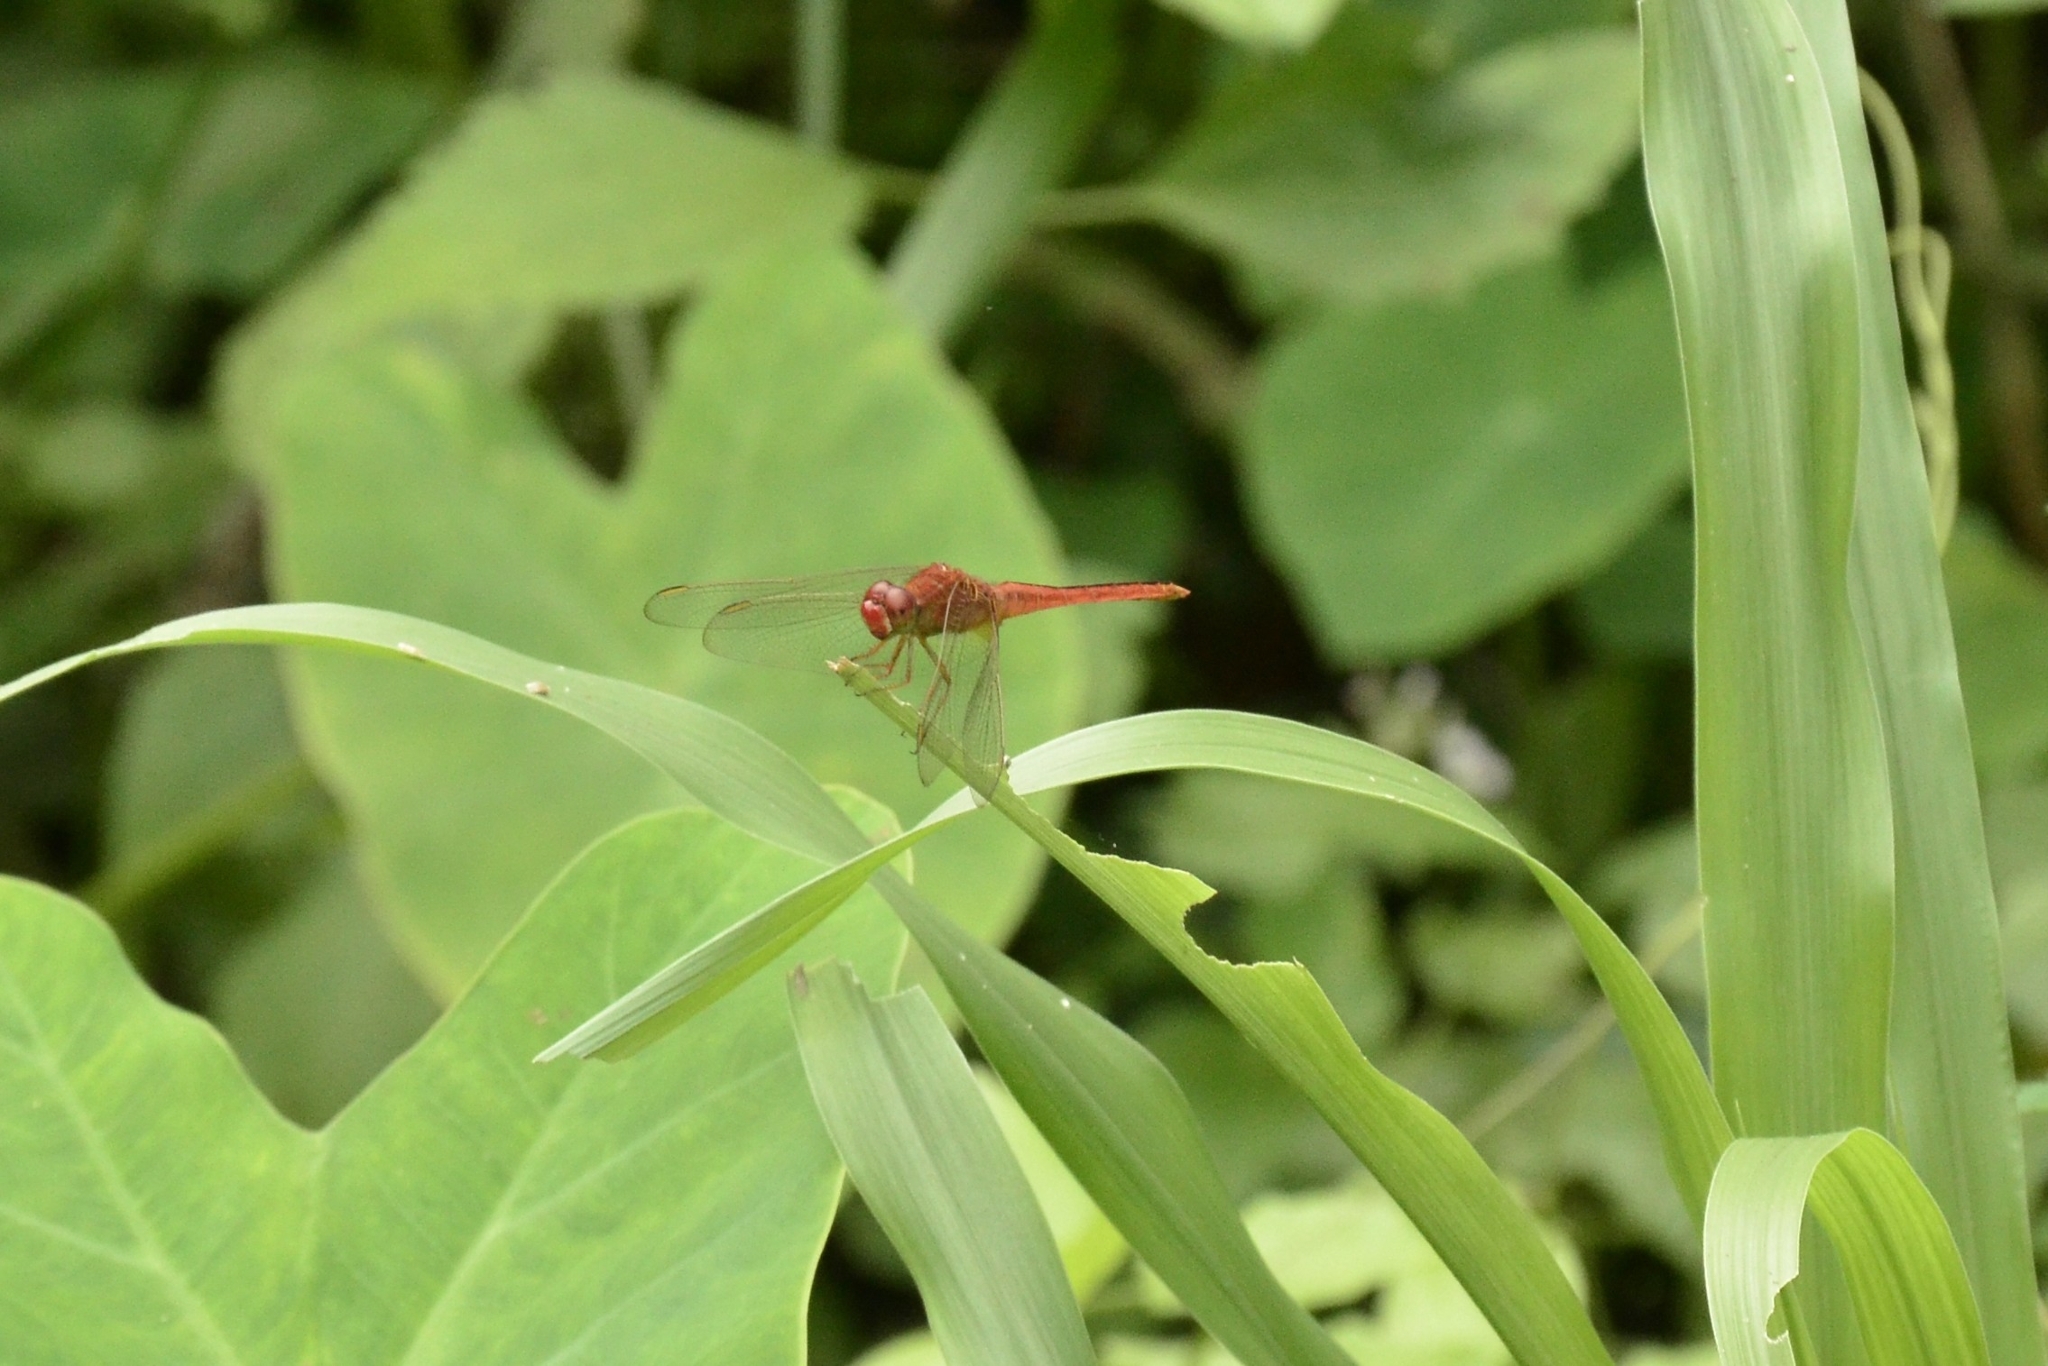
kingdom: Animalia
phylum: Arthropoda
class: Insecta
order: Odonata
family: Libellulidae
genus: Crocothemis
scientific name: Crocothemis servilia
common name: Scarlet skimmer
